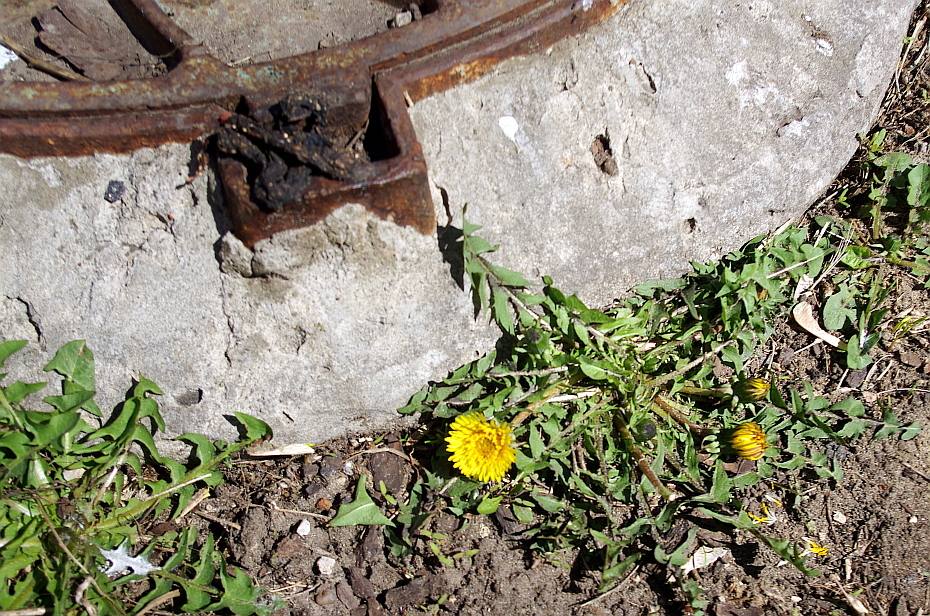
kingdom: Plantae
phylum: Tracheophyta
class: Magnoliopsida
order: Asterales
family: Asteraceae
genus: Taraxacum
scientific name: Taraxacum officinale
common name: Common dandelion
